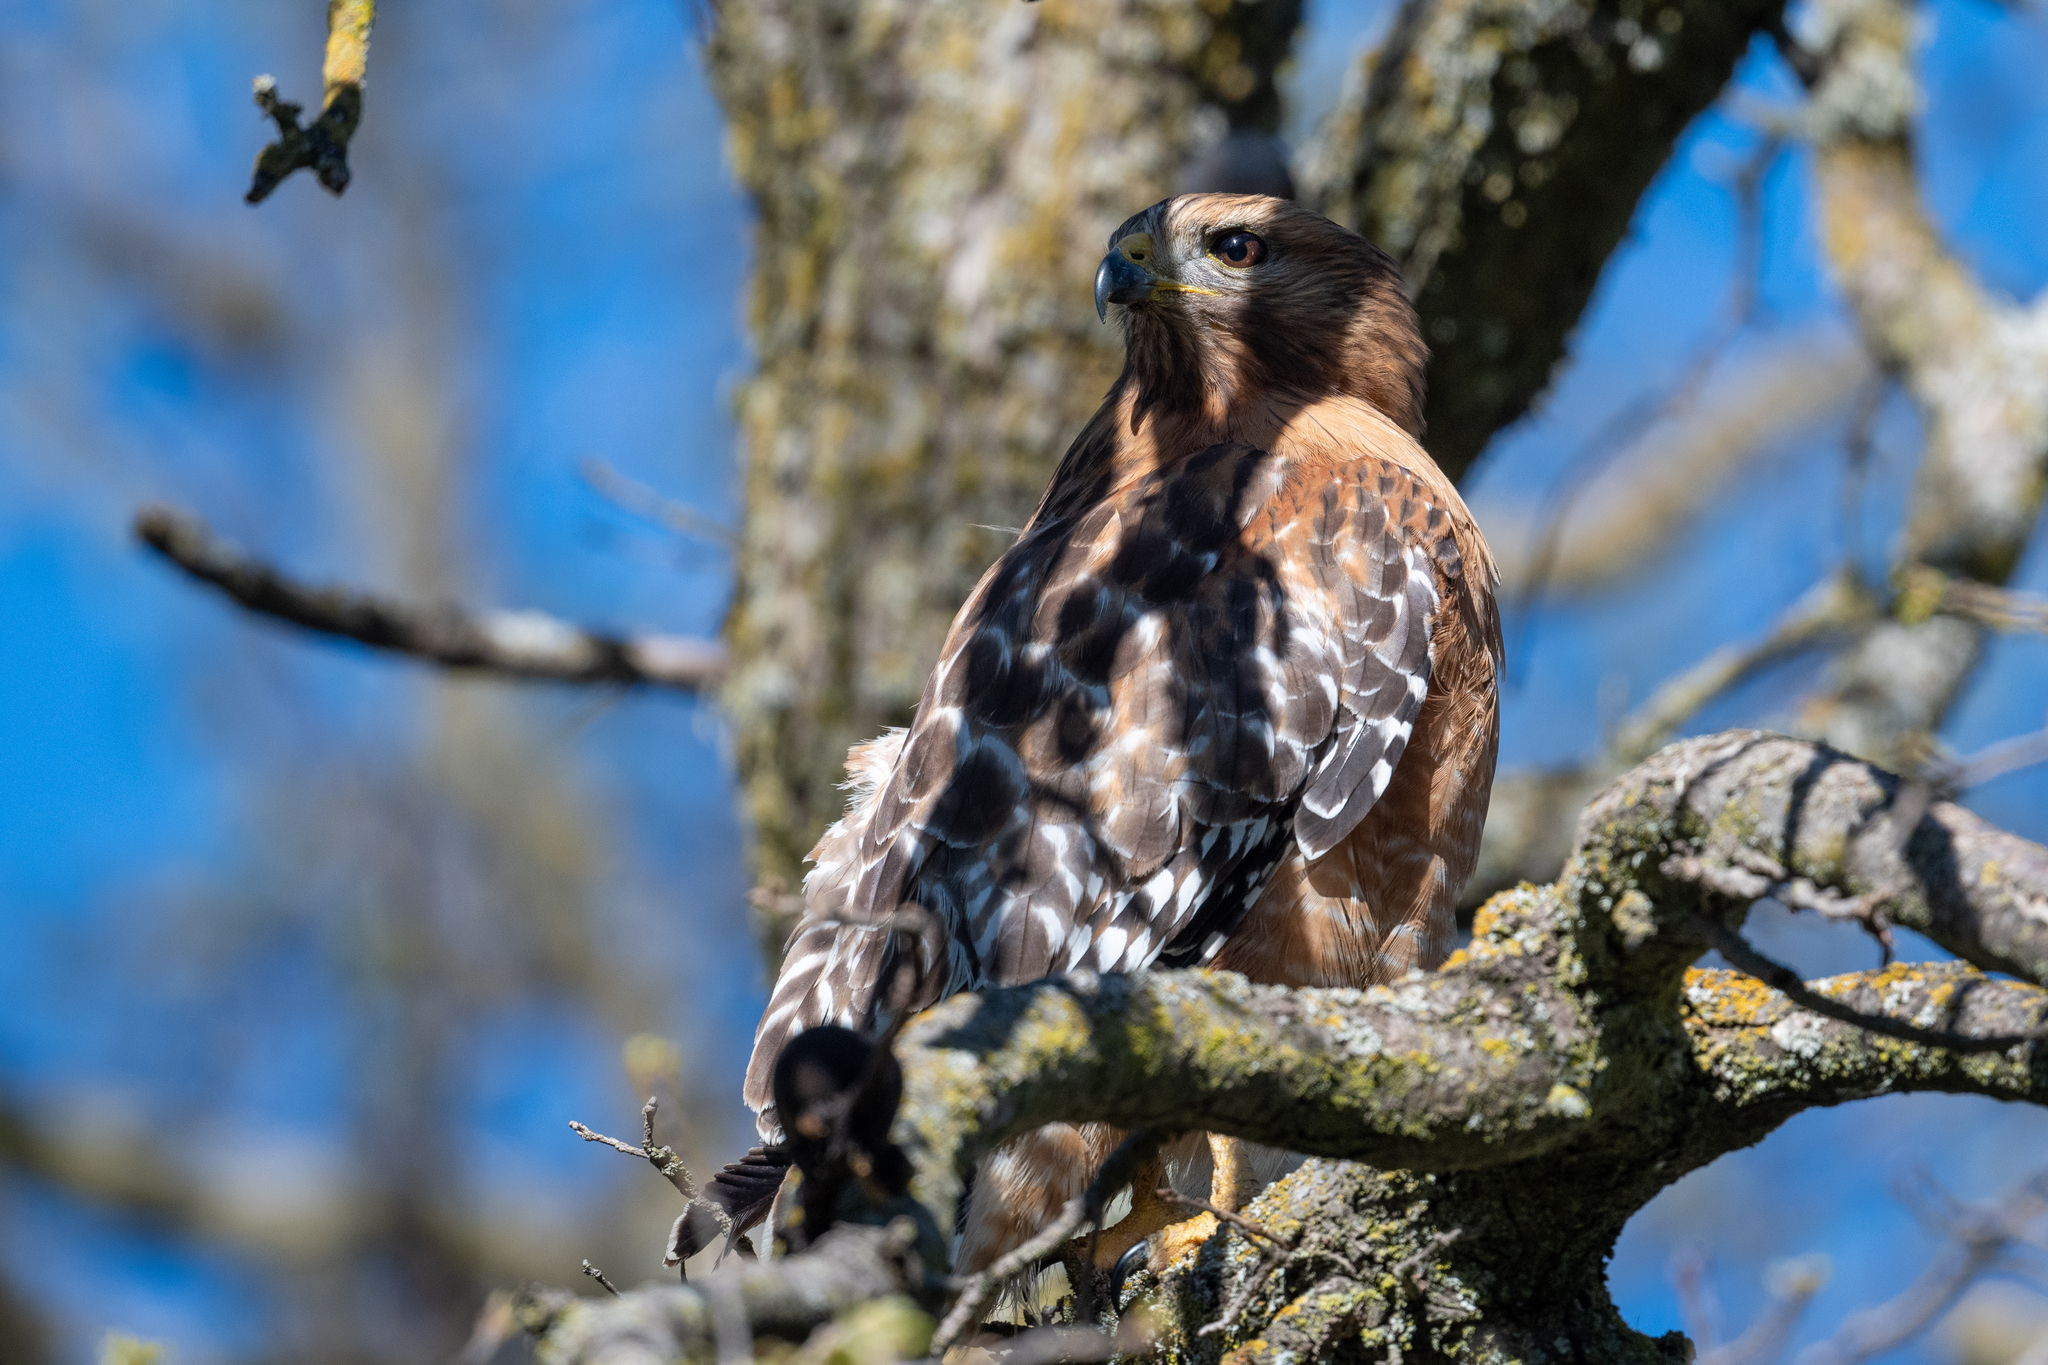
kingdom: Animalia
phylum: Chordata
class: Aves
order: Accipitriformes
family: Accipitridae
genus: Buteo
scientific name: Buteo lineatus
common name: Red-shouldered hawk
